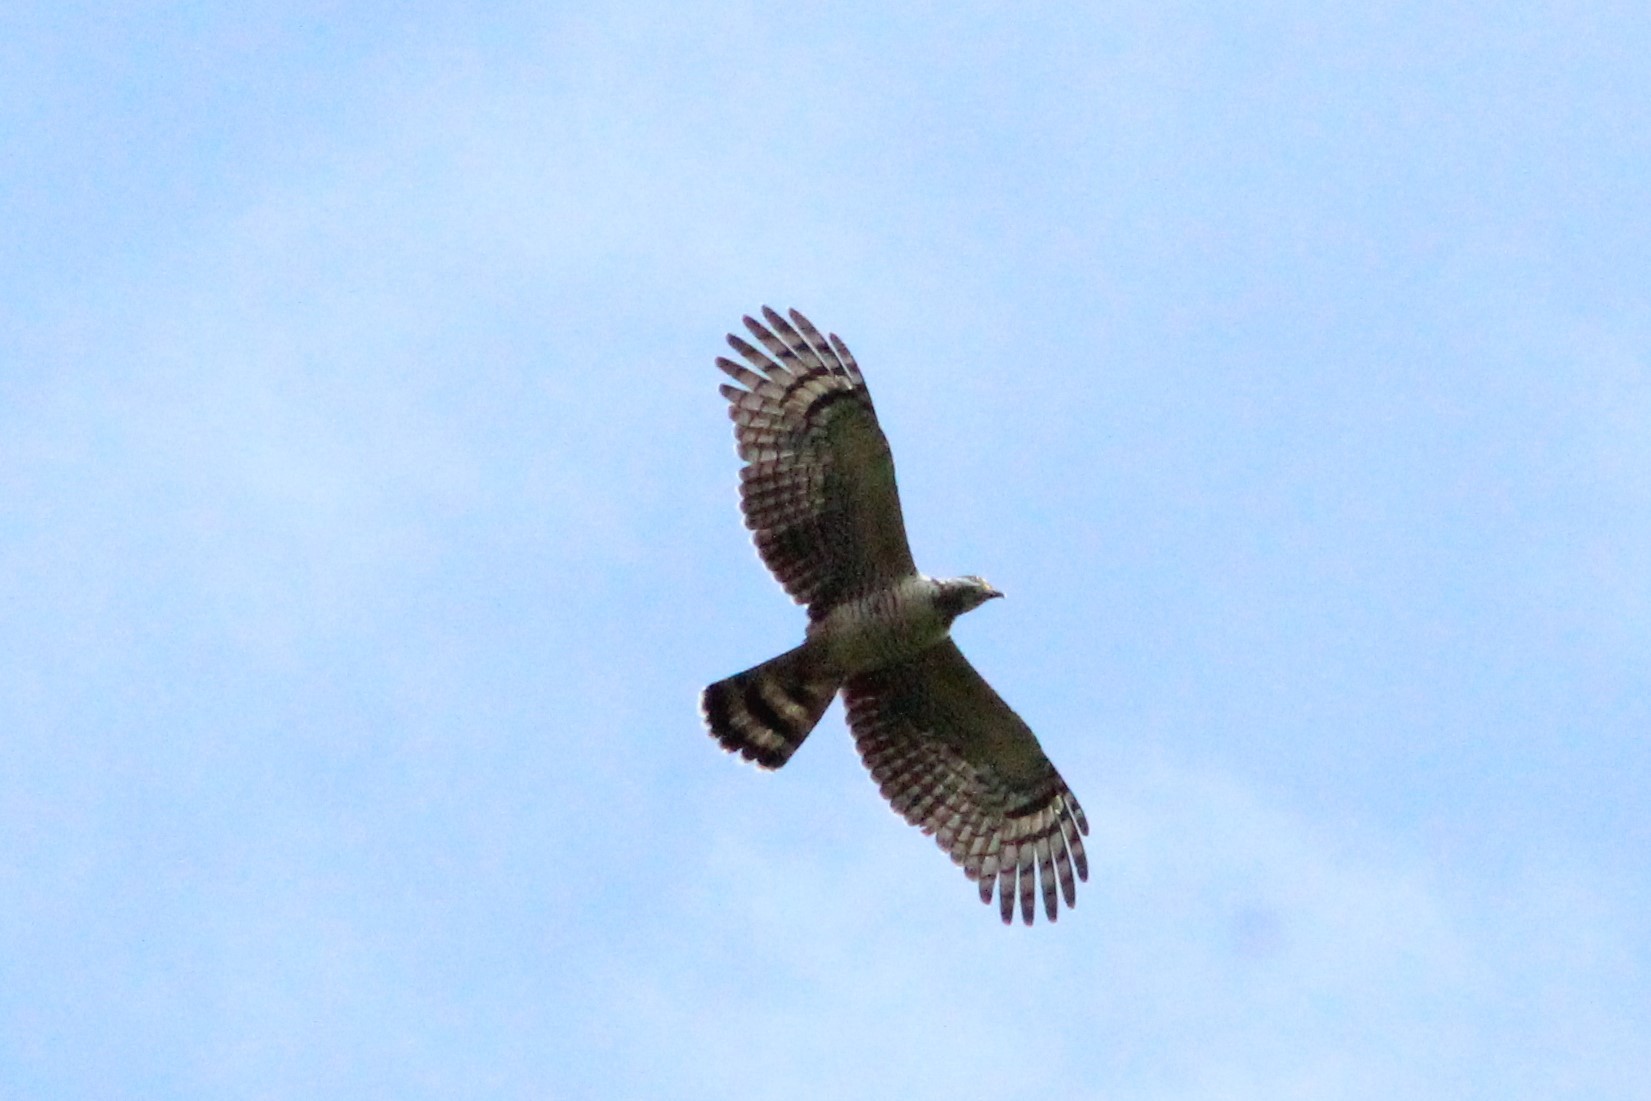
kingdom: Animalia
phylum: Chordata
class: Aves
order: Accipitriformes
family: Accipitridae
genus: Chondrohierax
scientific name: Chondrohierax uncinatus
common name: Hook-billed kite
